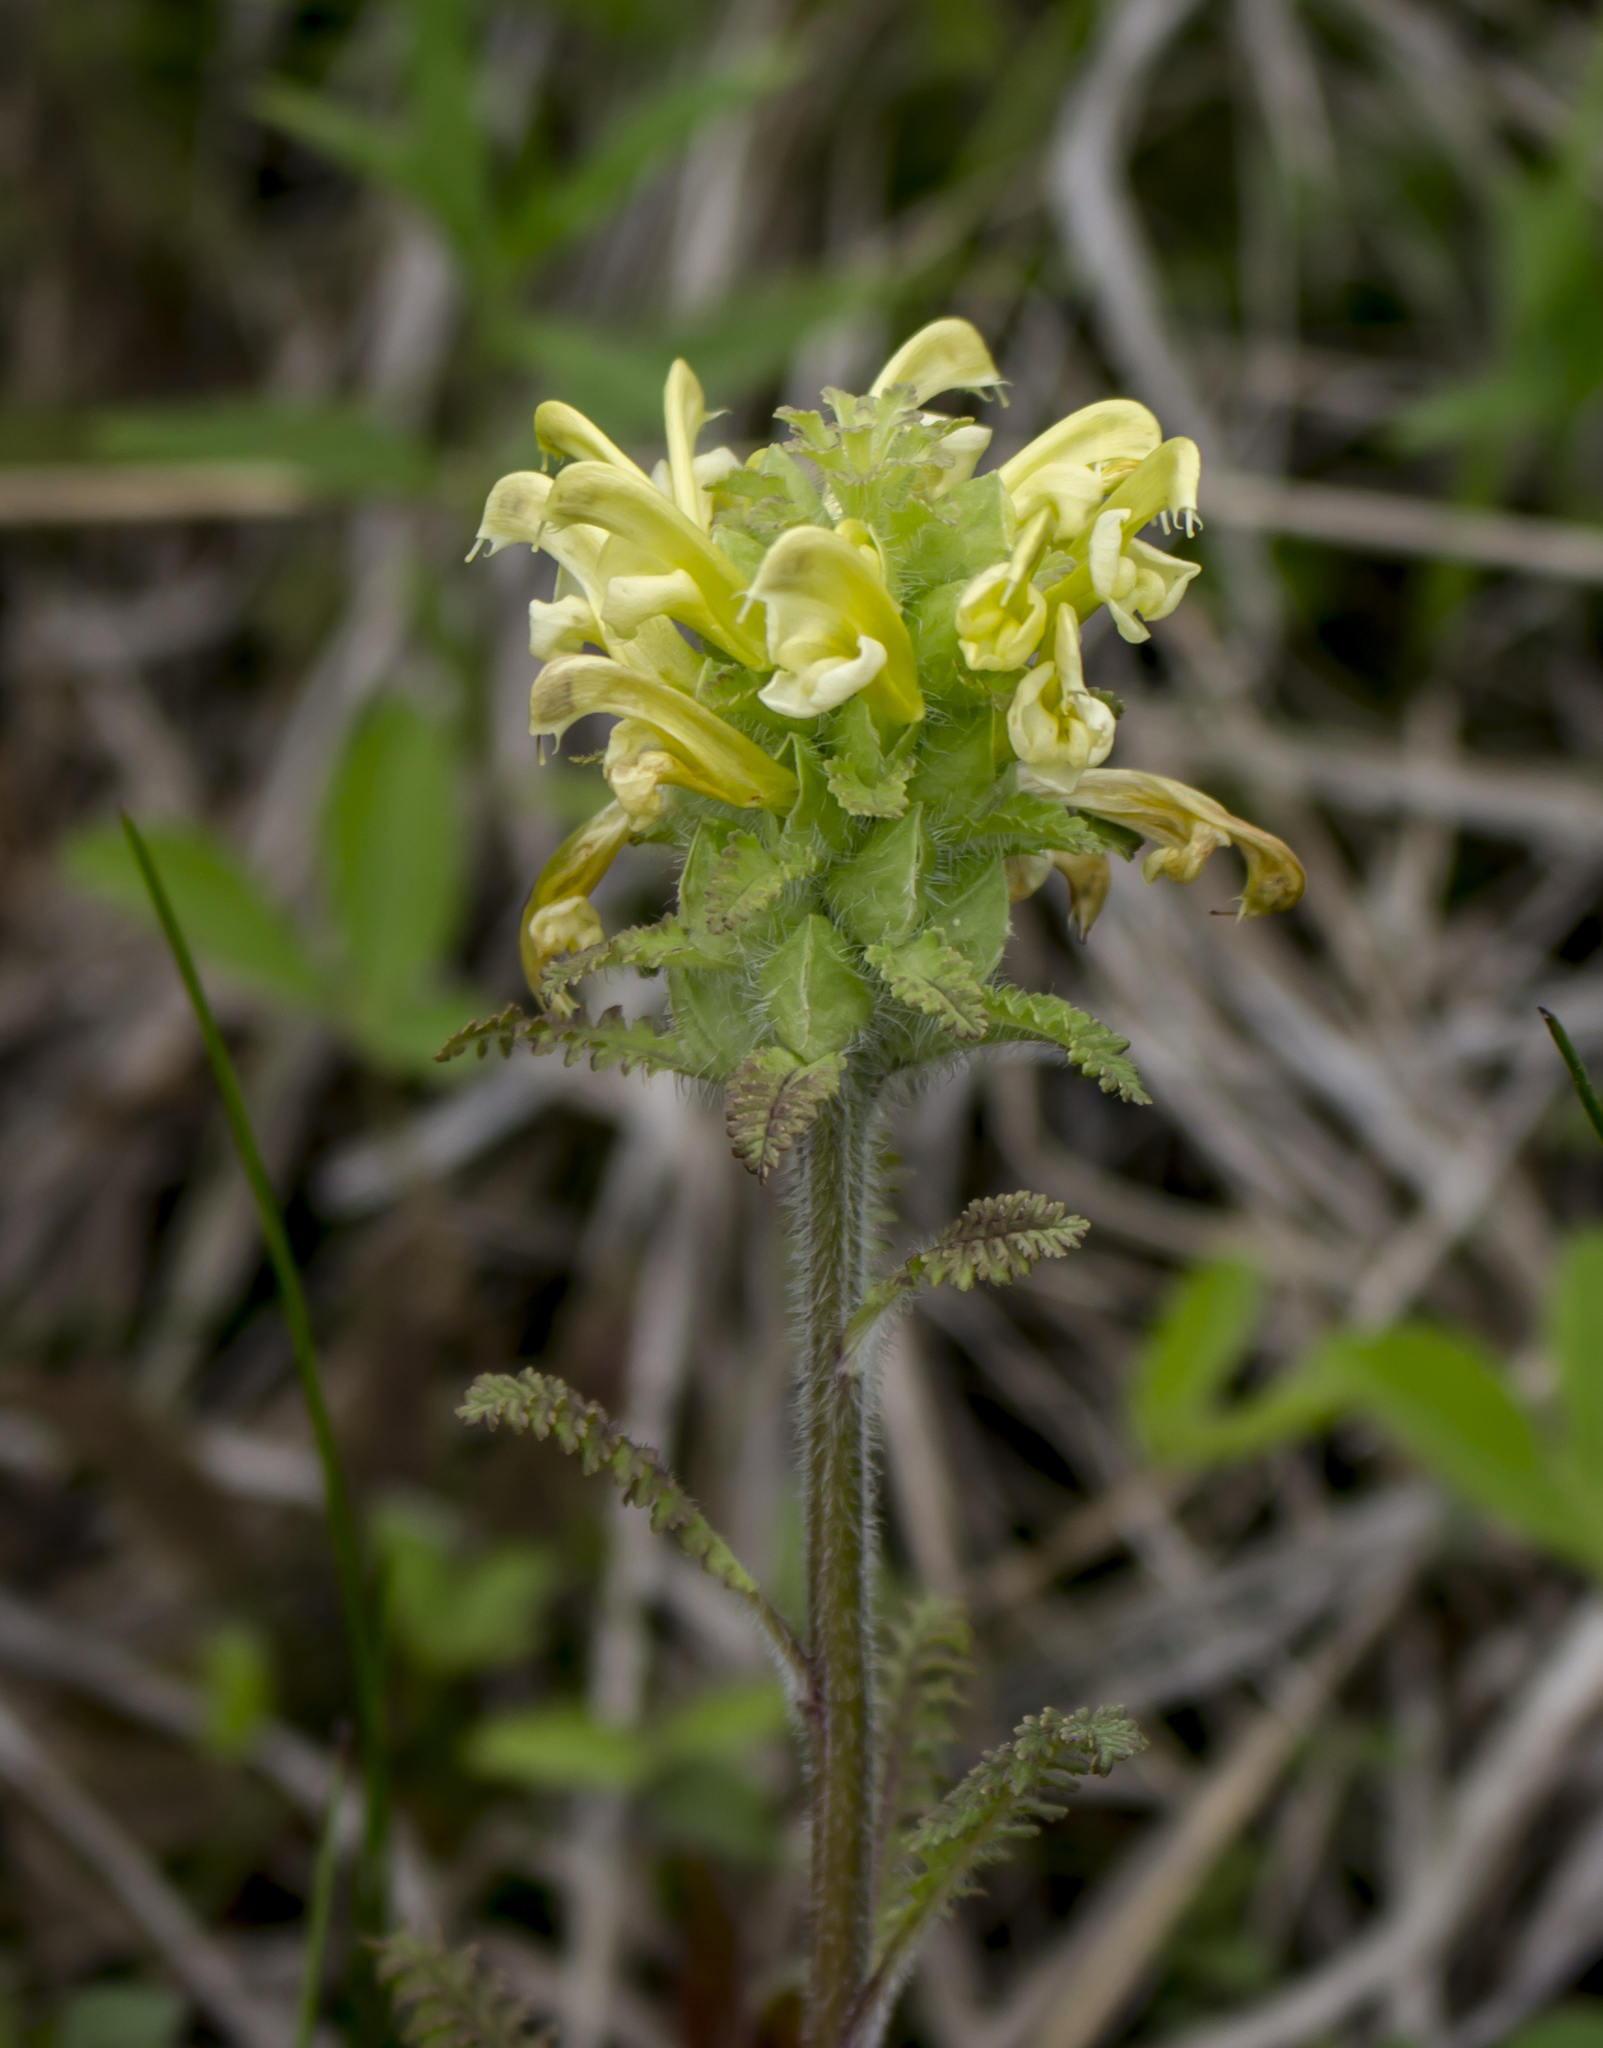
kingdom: Plantae
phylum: Tracheophyta
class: Magnoliopsida
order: Lamiales
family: Orobanchaceae
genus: Pedicularis
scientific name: Pedicularis canadensis
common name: Early lousewort
